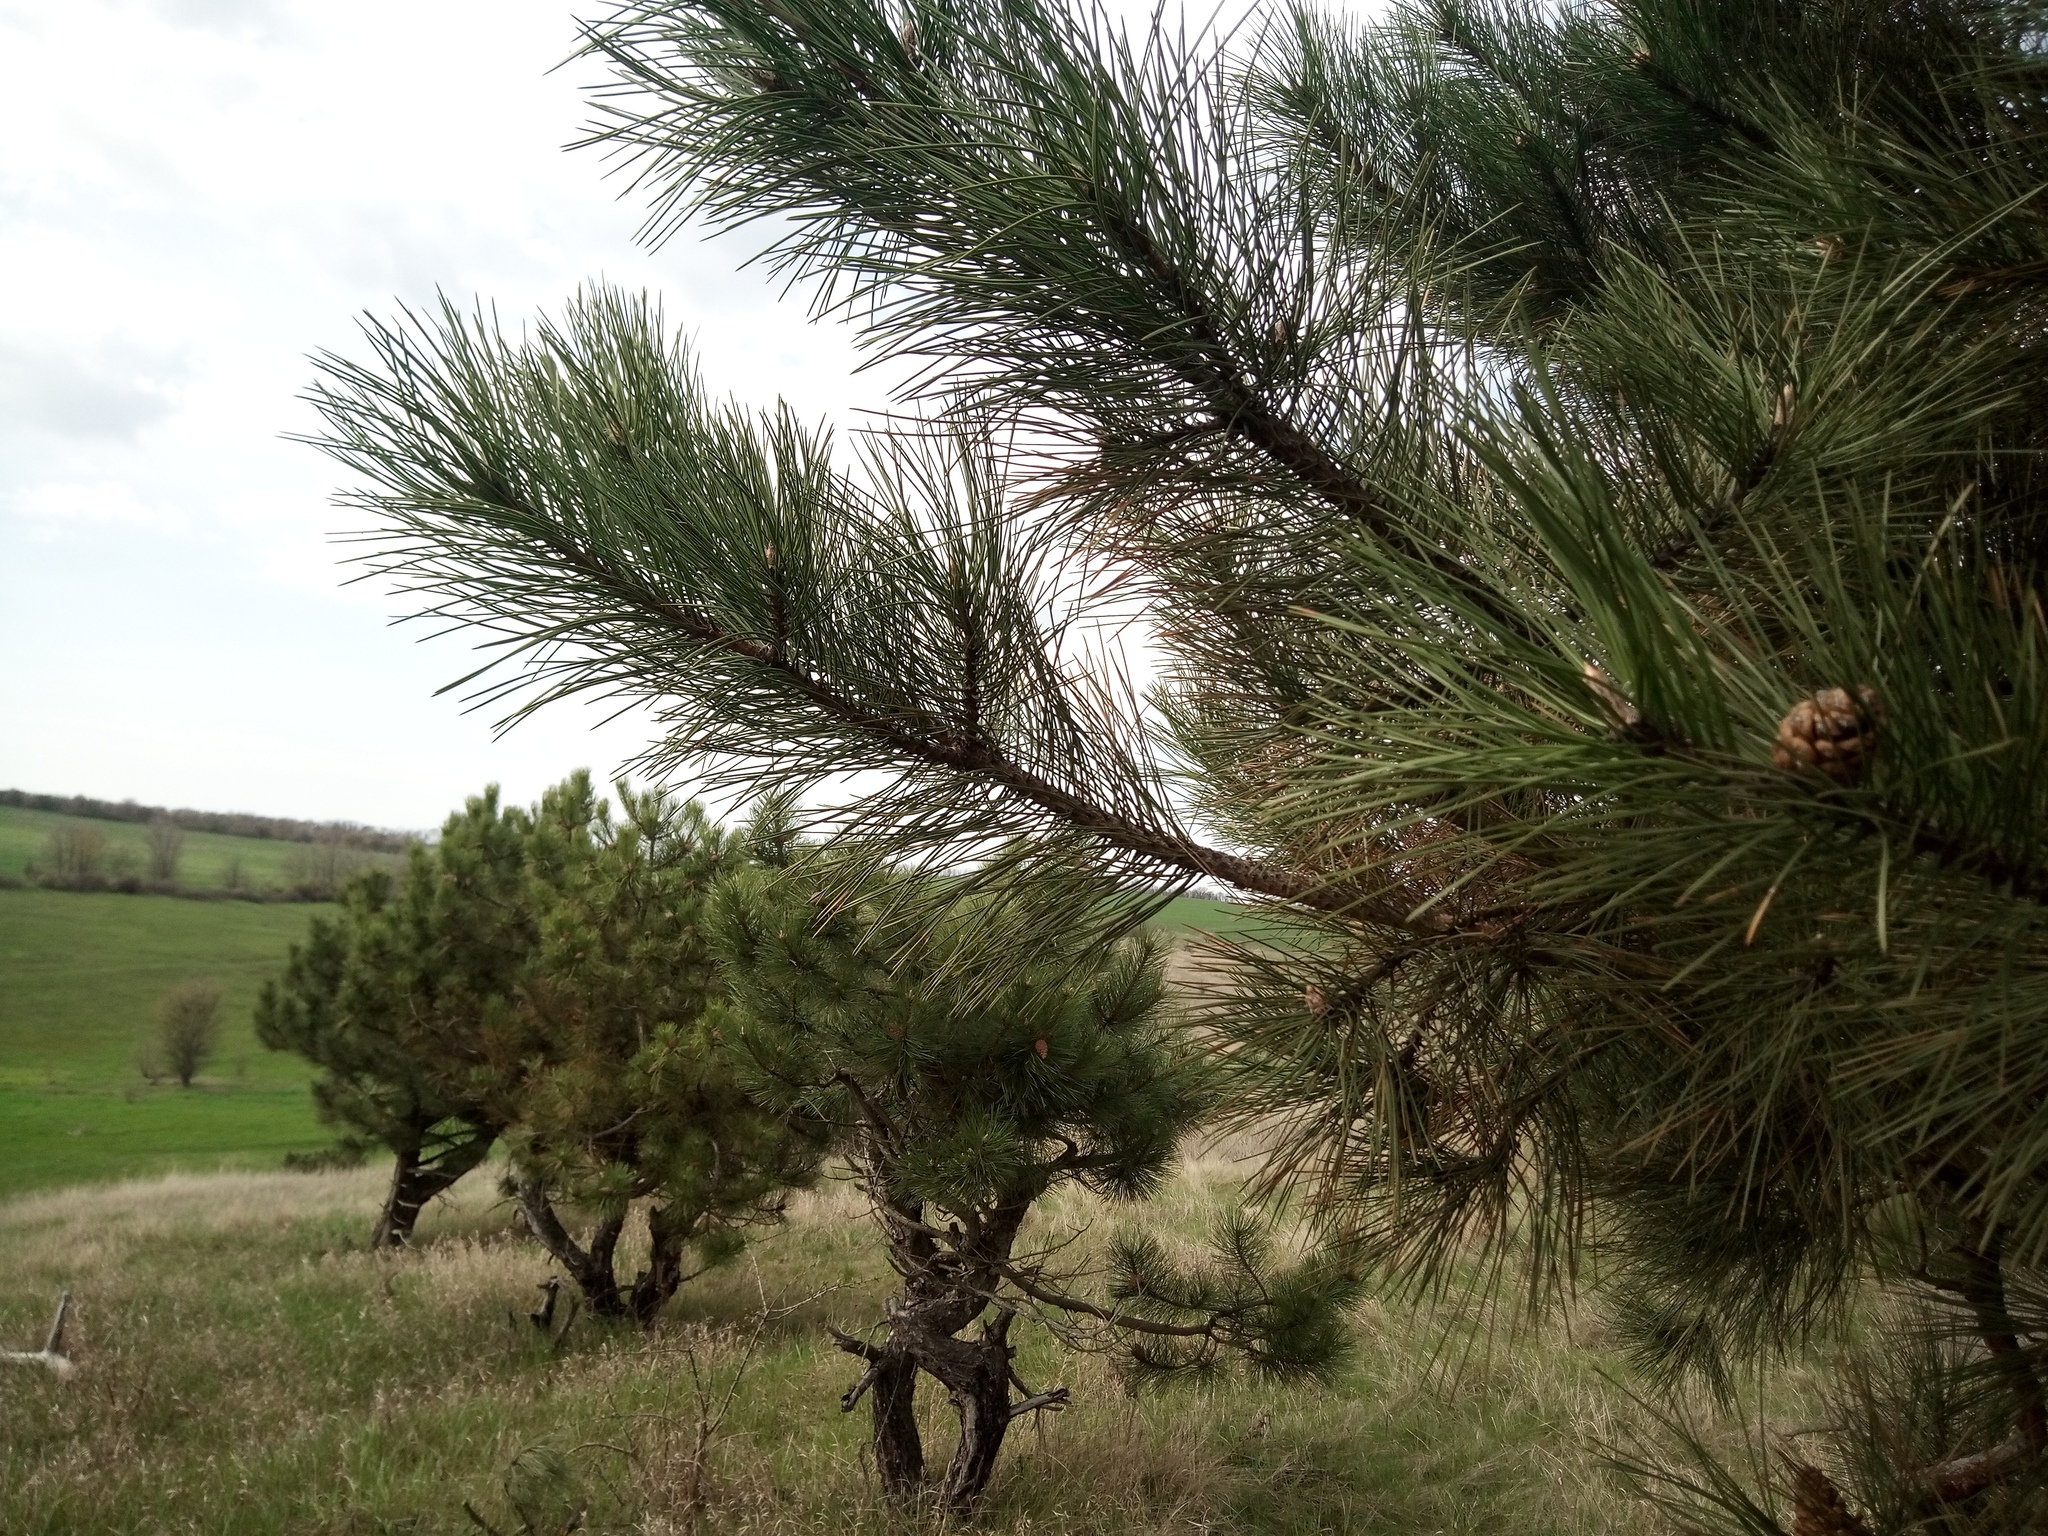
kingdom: Plantae
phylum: Tracheophyta
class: Pinopsida
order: Pinales
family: Pinaceae
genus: Pinus
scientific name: Pinus sylvestris
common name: Scots pine
